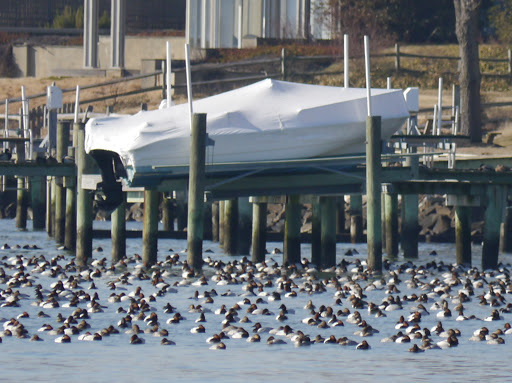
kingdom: Animalia
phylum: Chordata
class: Aves
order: Anseriformes
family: Anatidae
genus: Aythya
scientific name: Aythya valisineria
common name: Canvasback
